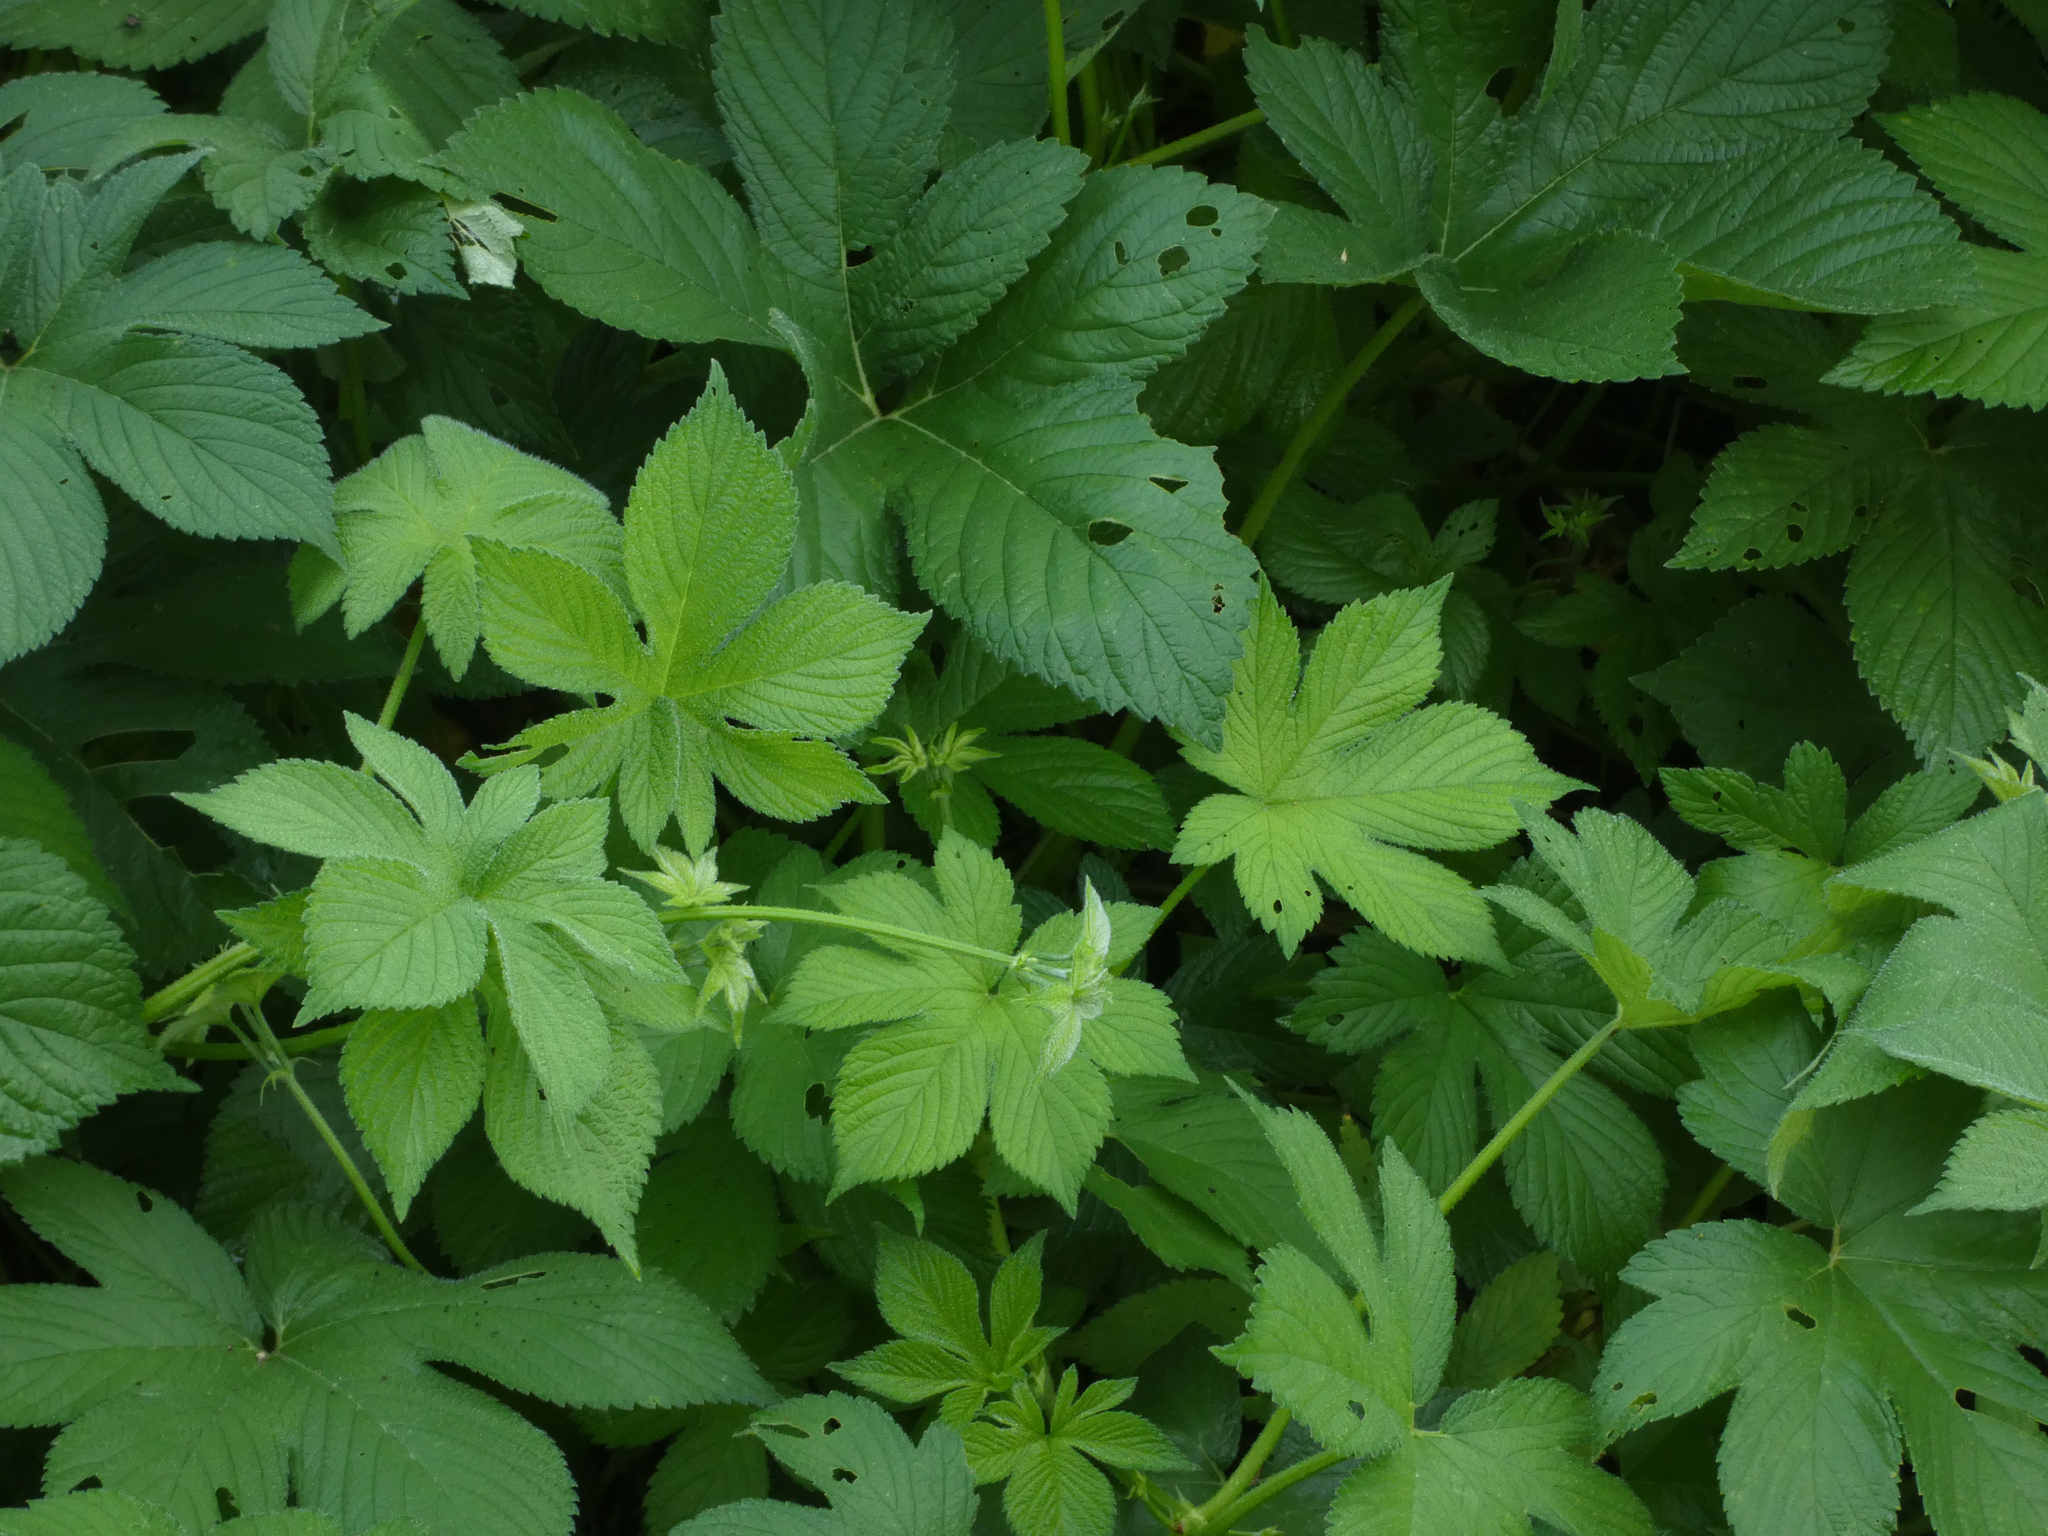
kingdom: Plantae
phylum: Tracheophyta
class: Magnoliopsida
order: Rosales
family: Cannabaceae
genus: Humulus
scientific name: Humulus scandens
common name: Japanese hop
